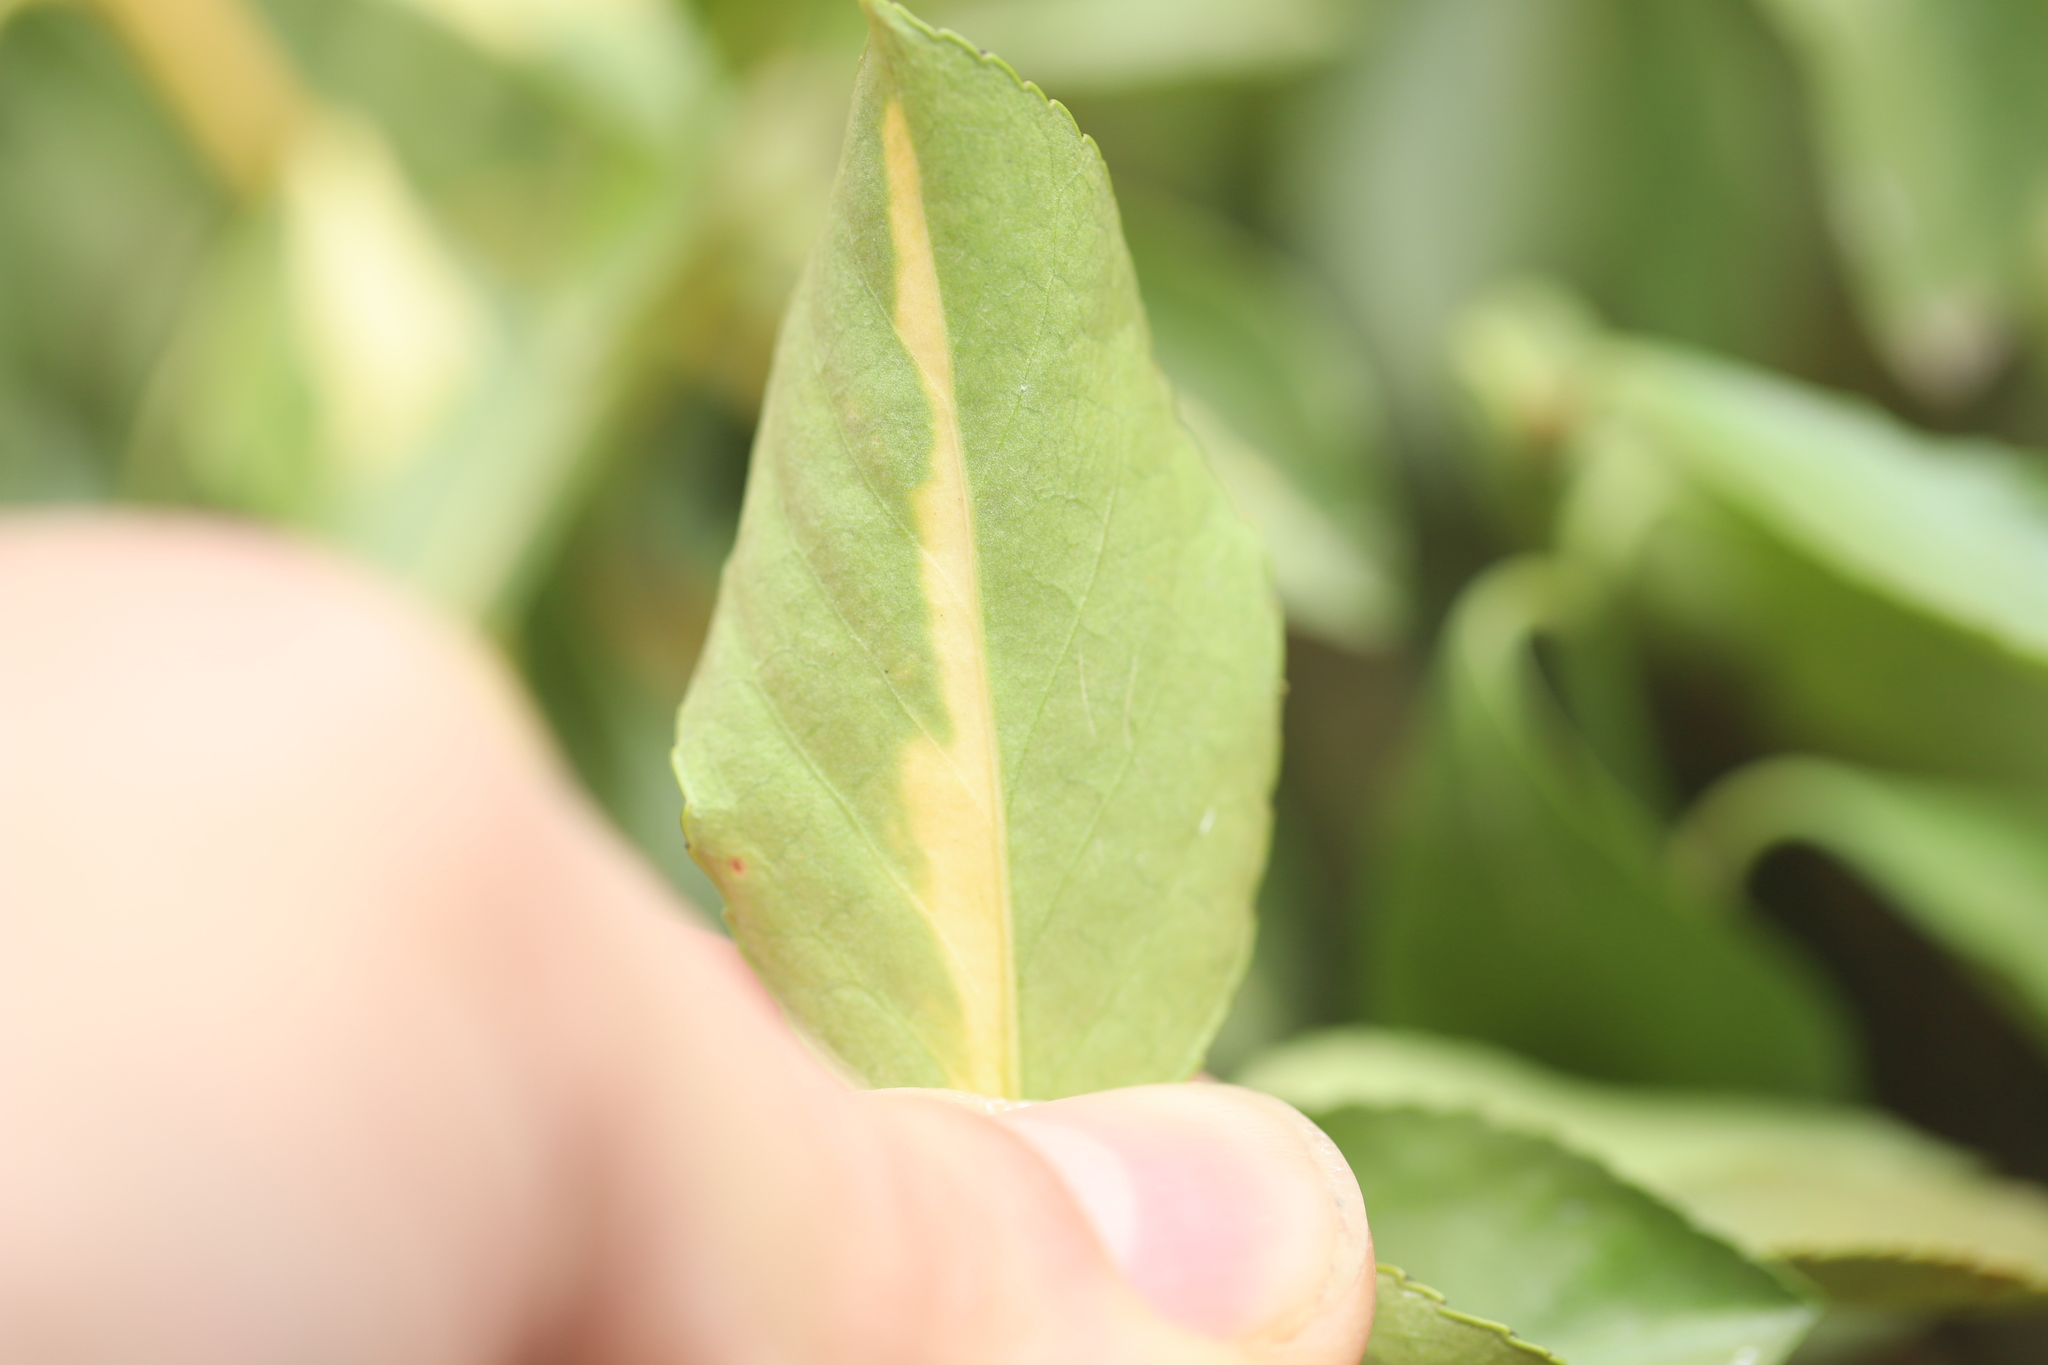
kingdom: Animalia
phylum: Arthropoda
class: Insecta
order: Hemiptera
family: Diaspididae
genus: Unaspis
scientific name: Unaspis euonymi
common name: Euonymus scale
